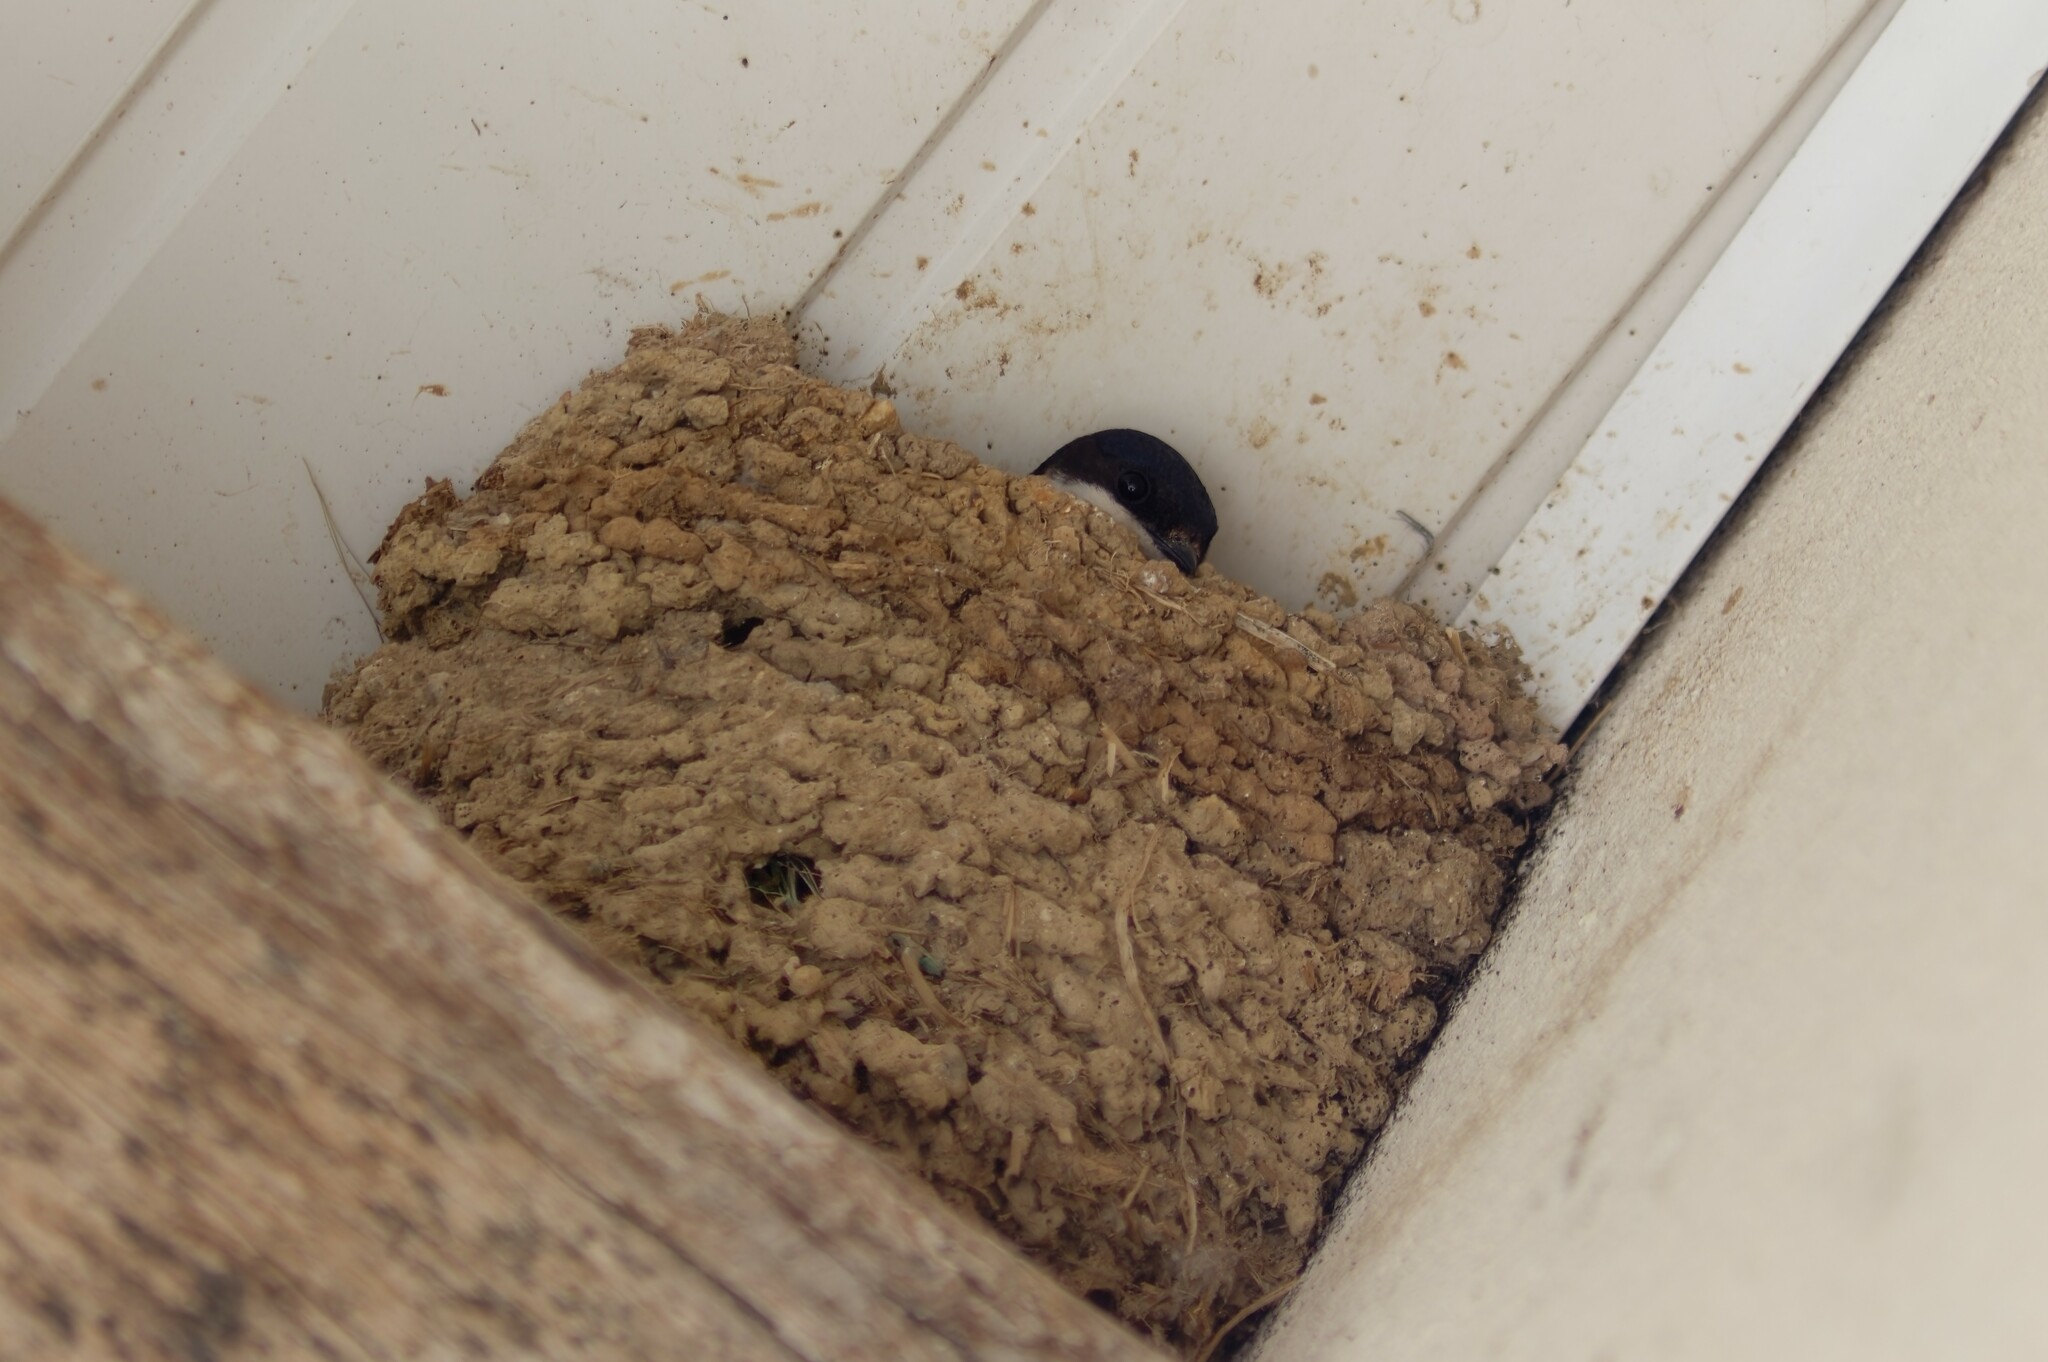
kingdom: Animalia
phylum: Chordata
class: Aves
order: Passeriformes
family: Hirundinidae
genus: Delichon
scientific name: Delichon urbicum
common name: Common house martin
